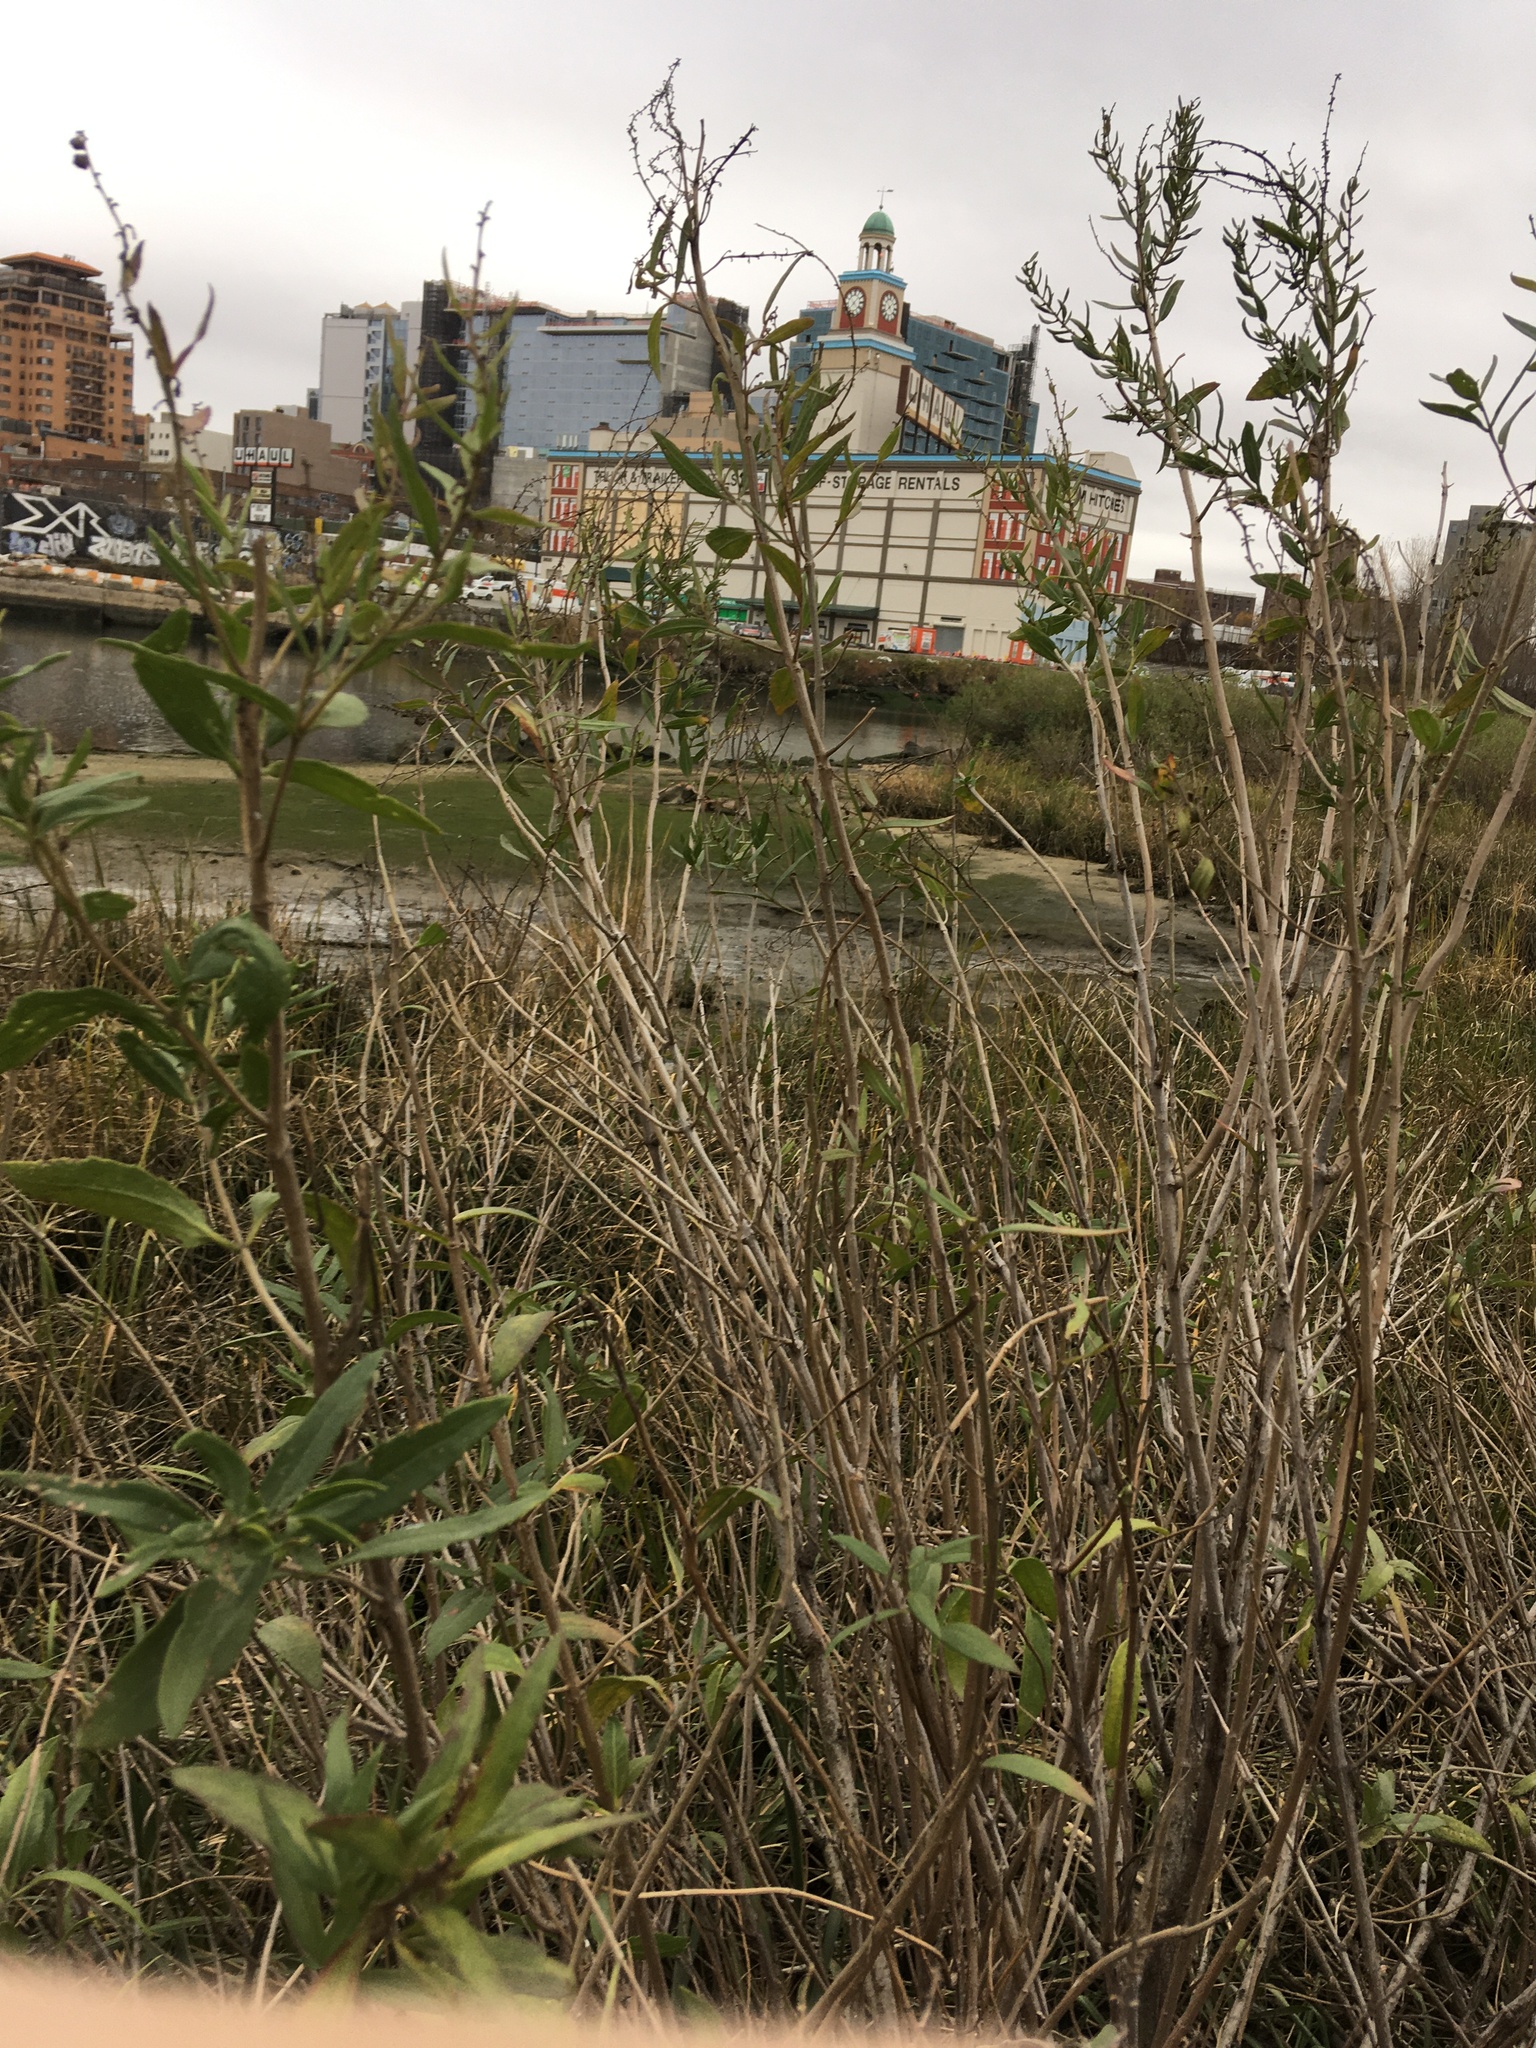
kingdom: Plantae
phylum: Tracheophyta
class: Magnoliopsida
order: Asterales
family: Asteraceae
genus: Iva
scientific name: Iva frutescens
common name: Big-leaved marsh-elder
